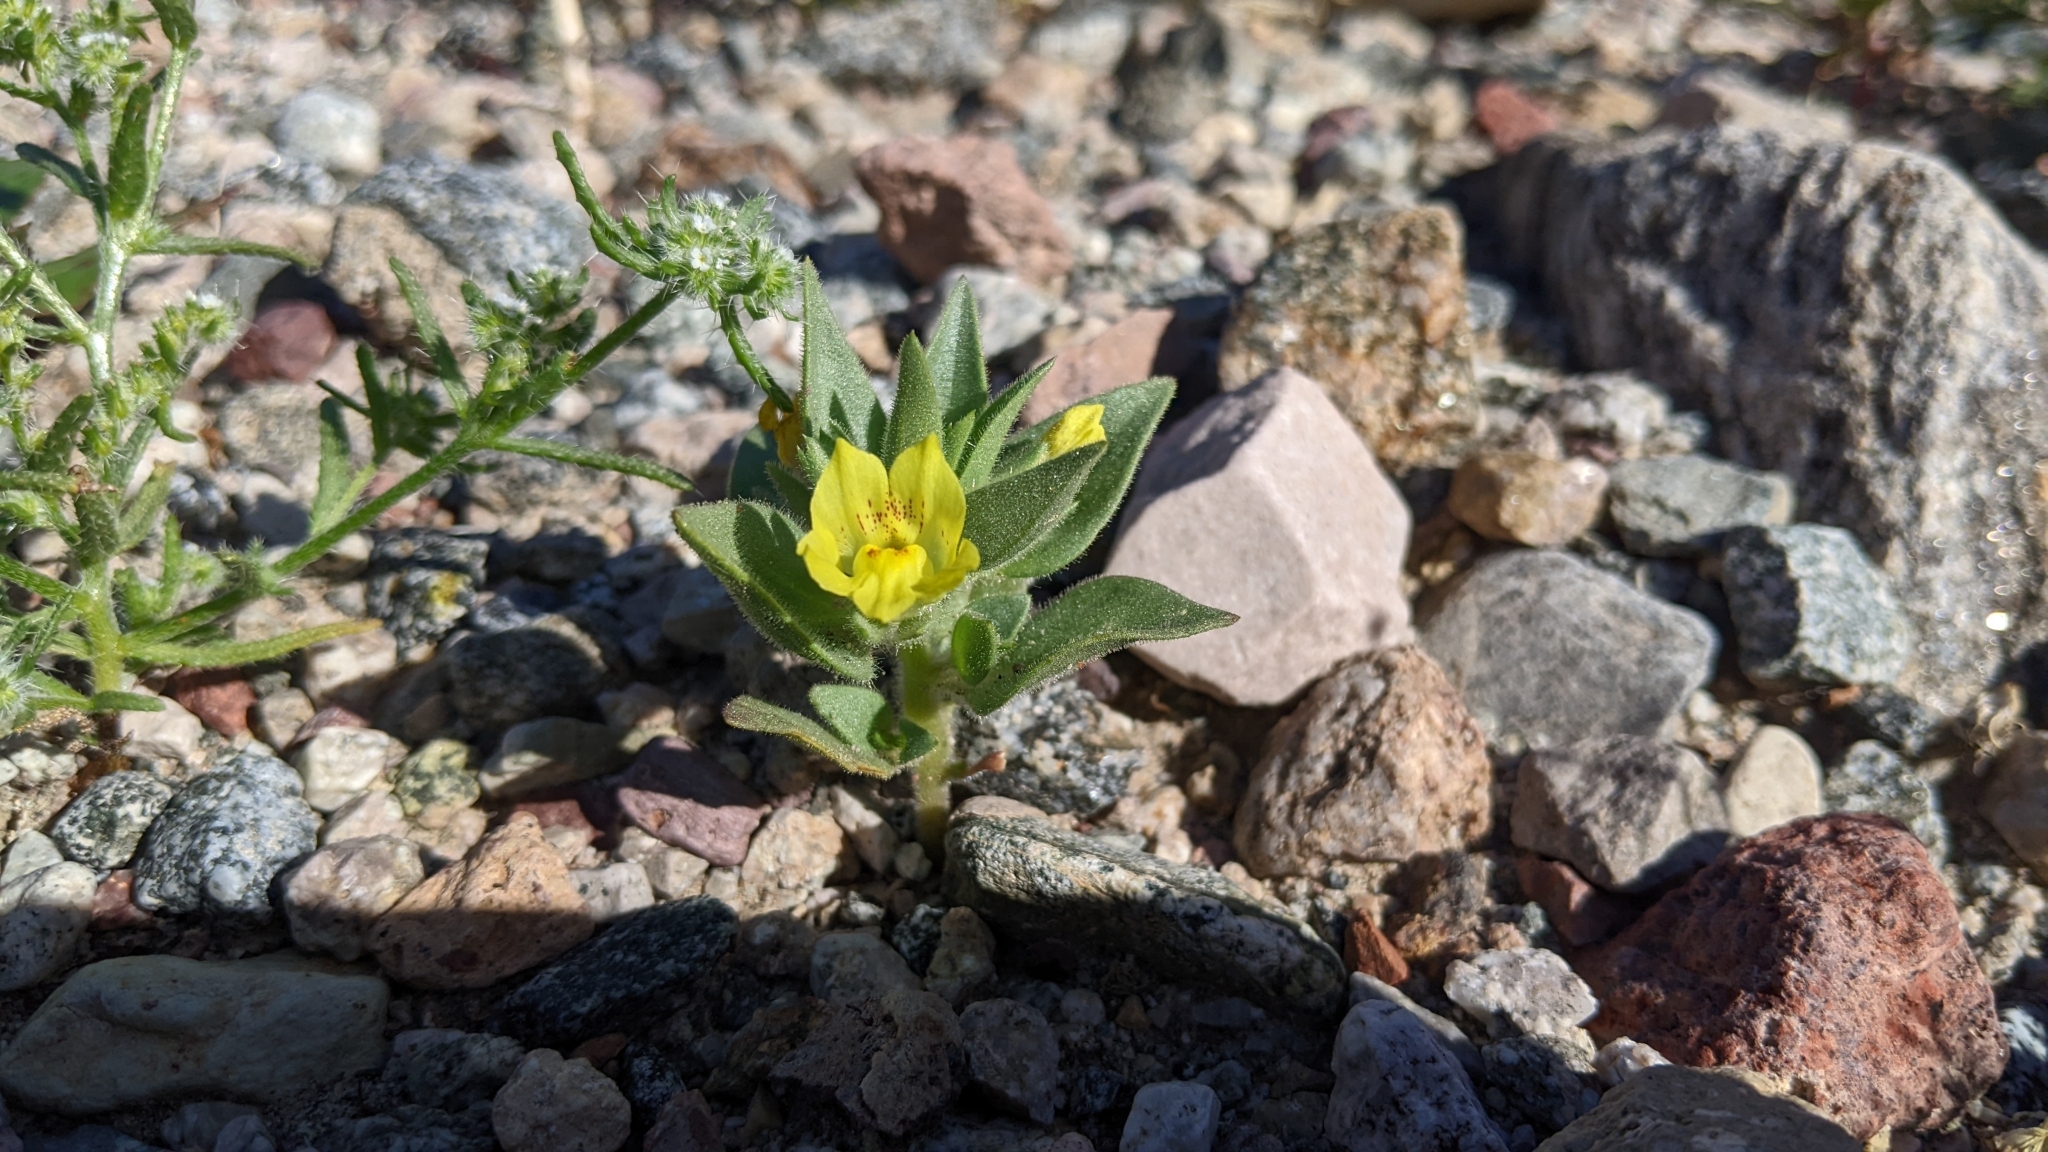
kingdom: Plantae
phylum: Tracheophyta
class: Magnoliopsida
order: Lamiales
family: Plantaginaceae
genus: Mohavea
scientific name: Mohavea breviflora
